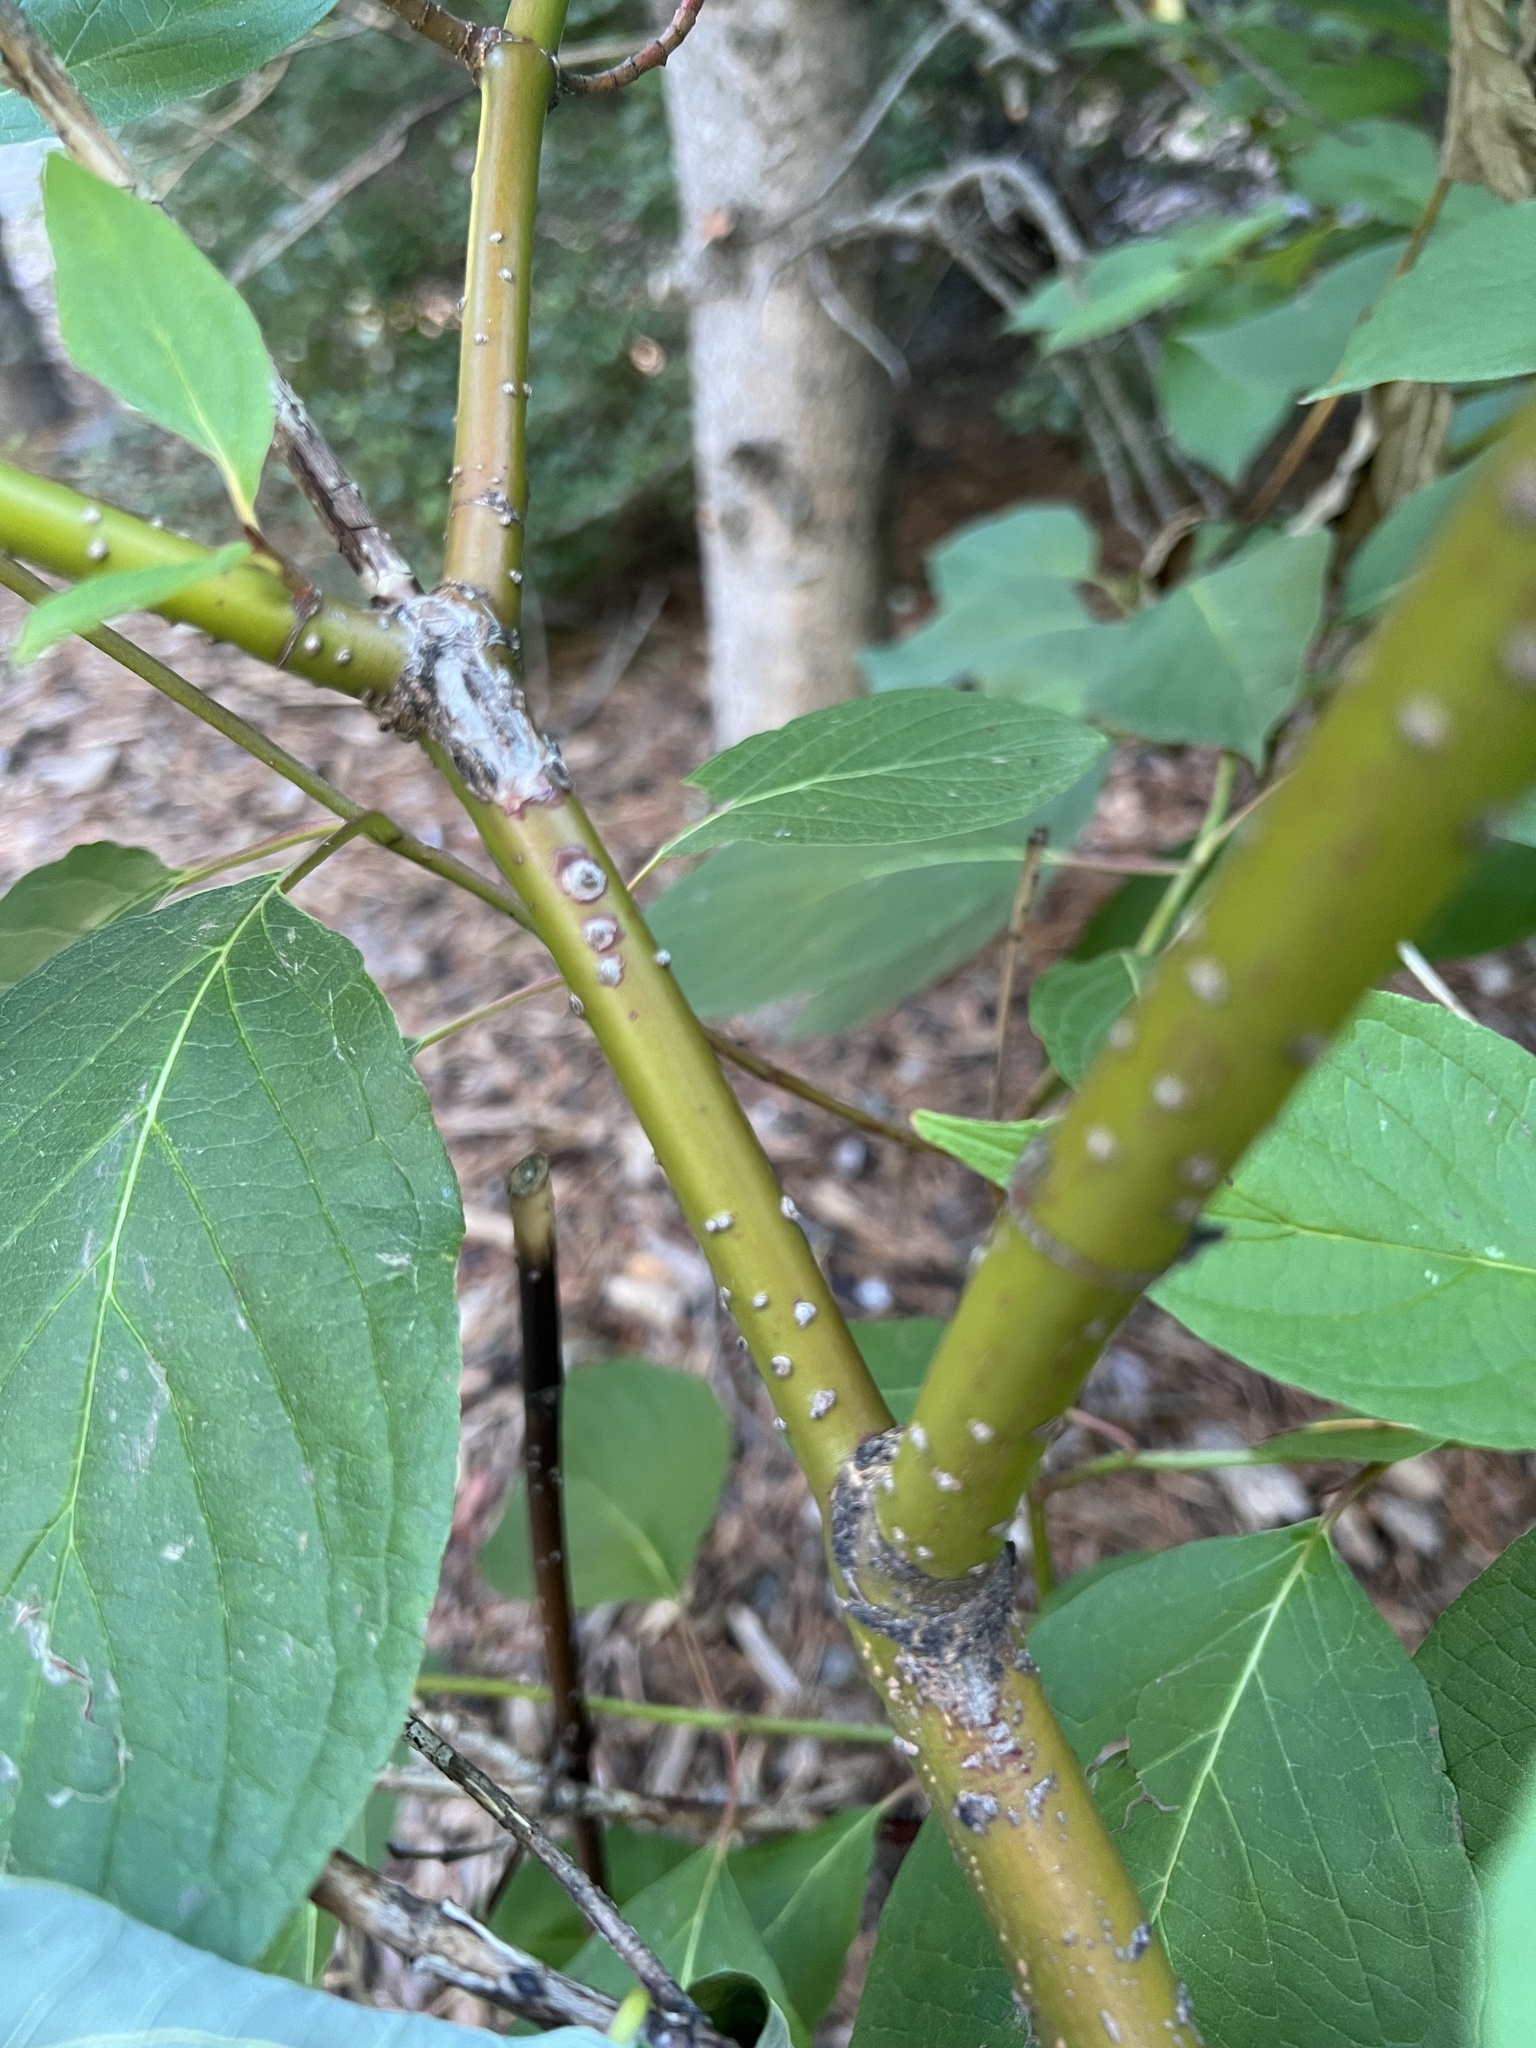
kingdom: Plantae
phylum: Tracheophyta
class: Magnoliopsida
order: Cornales
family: Cornaceae
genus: Cornus
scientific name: Cornus sericea
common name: Red-osier dogwood
